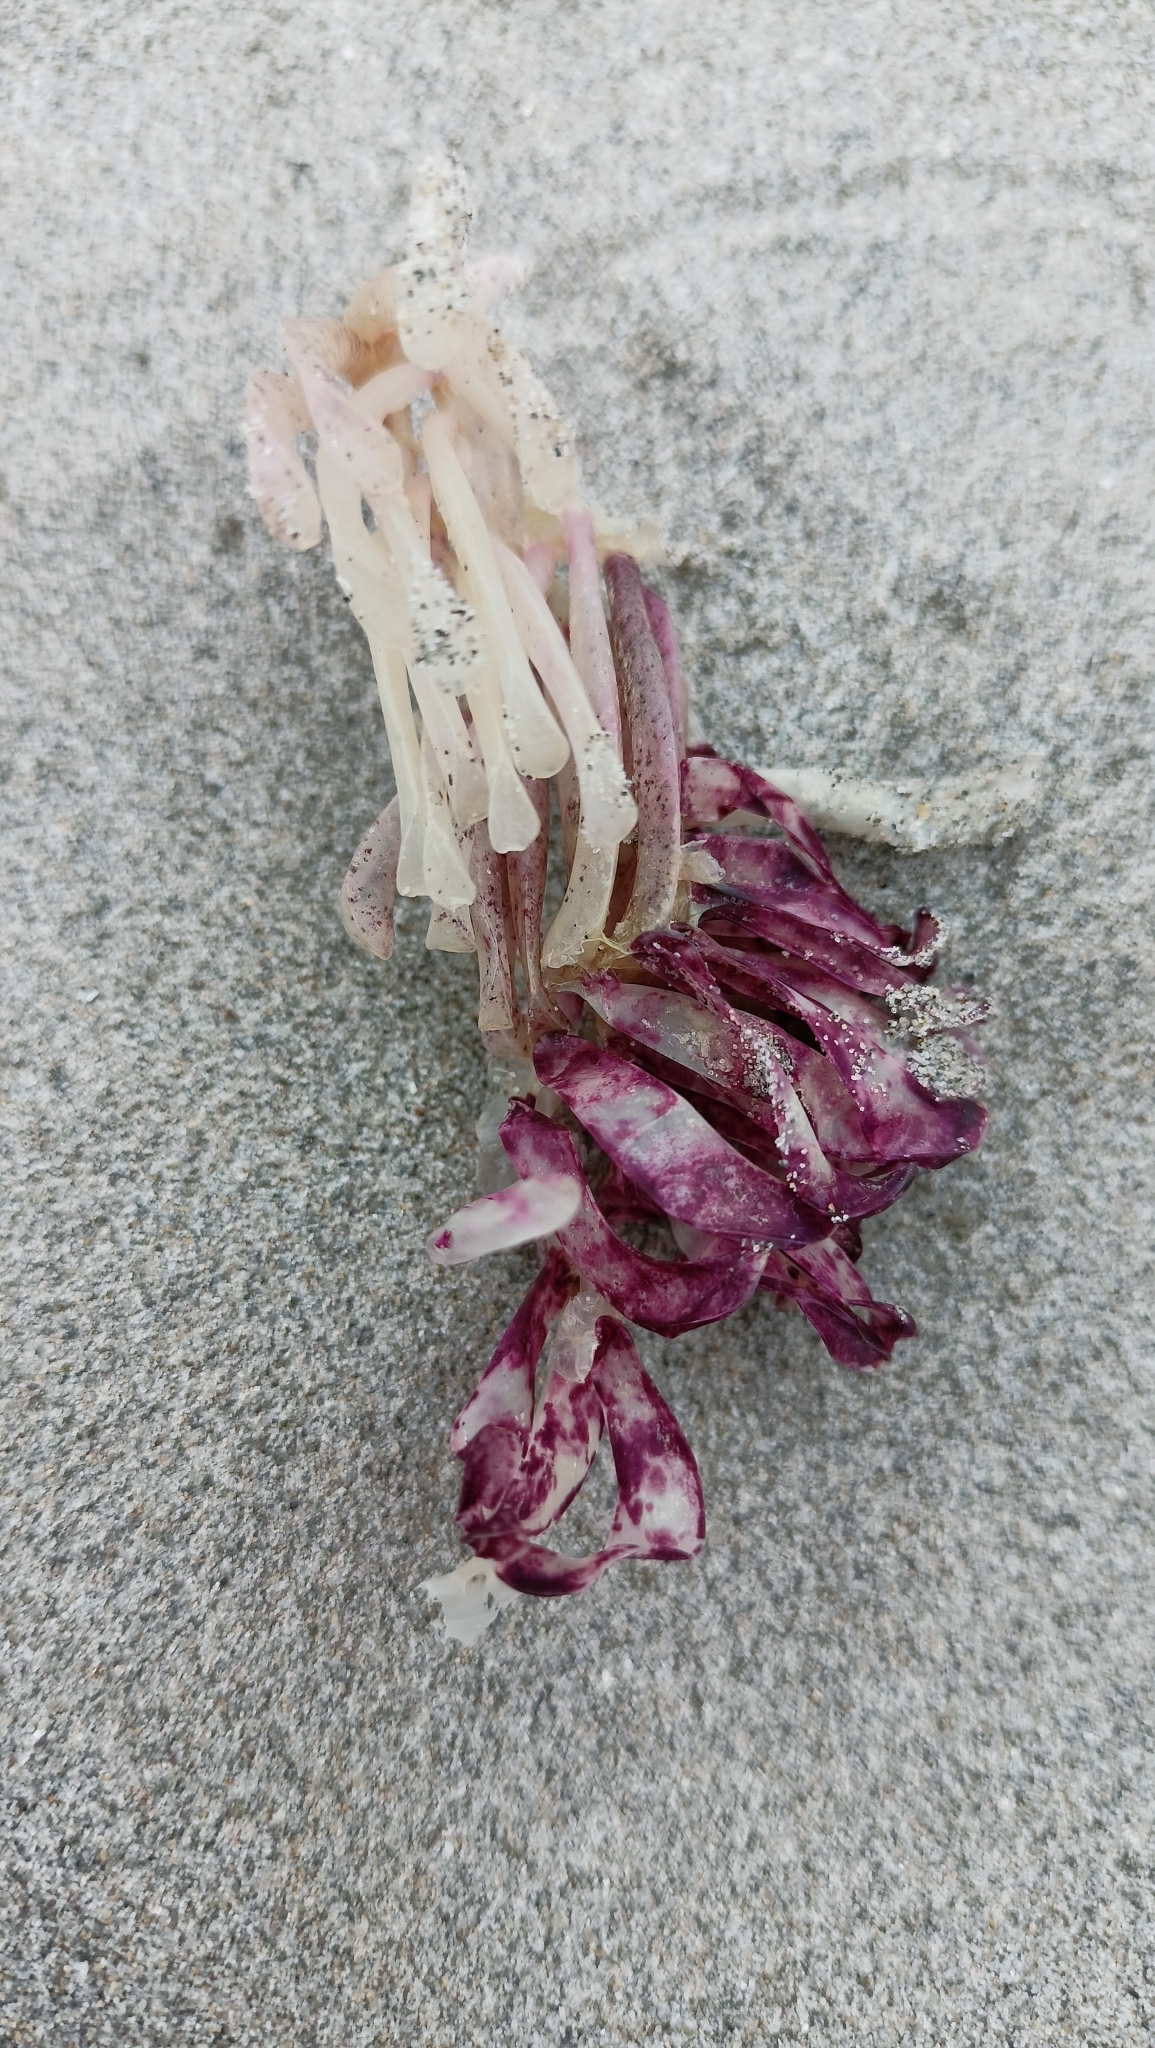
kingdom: Animalia
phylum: Mollusca
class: Gastropoda
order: Neogastropoda
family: Muricidae
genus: Rapana
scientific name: Rapana venosa
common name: Veined rapa whelk
